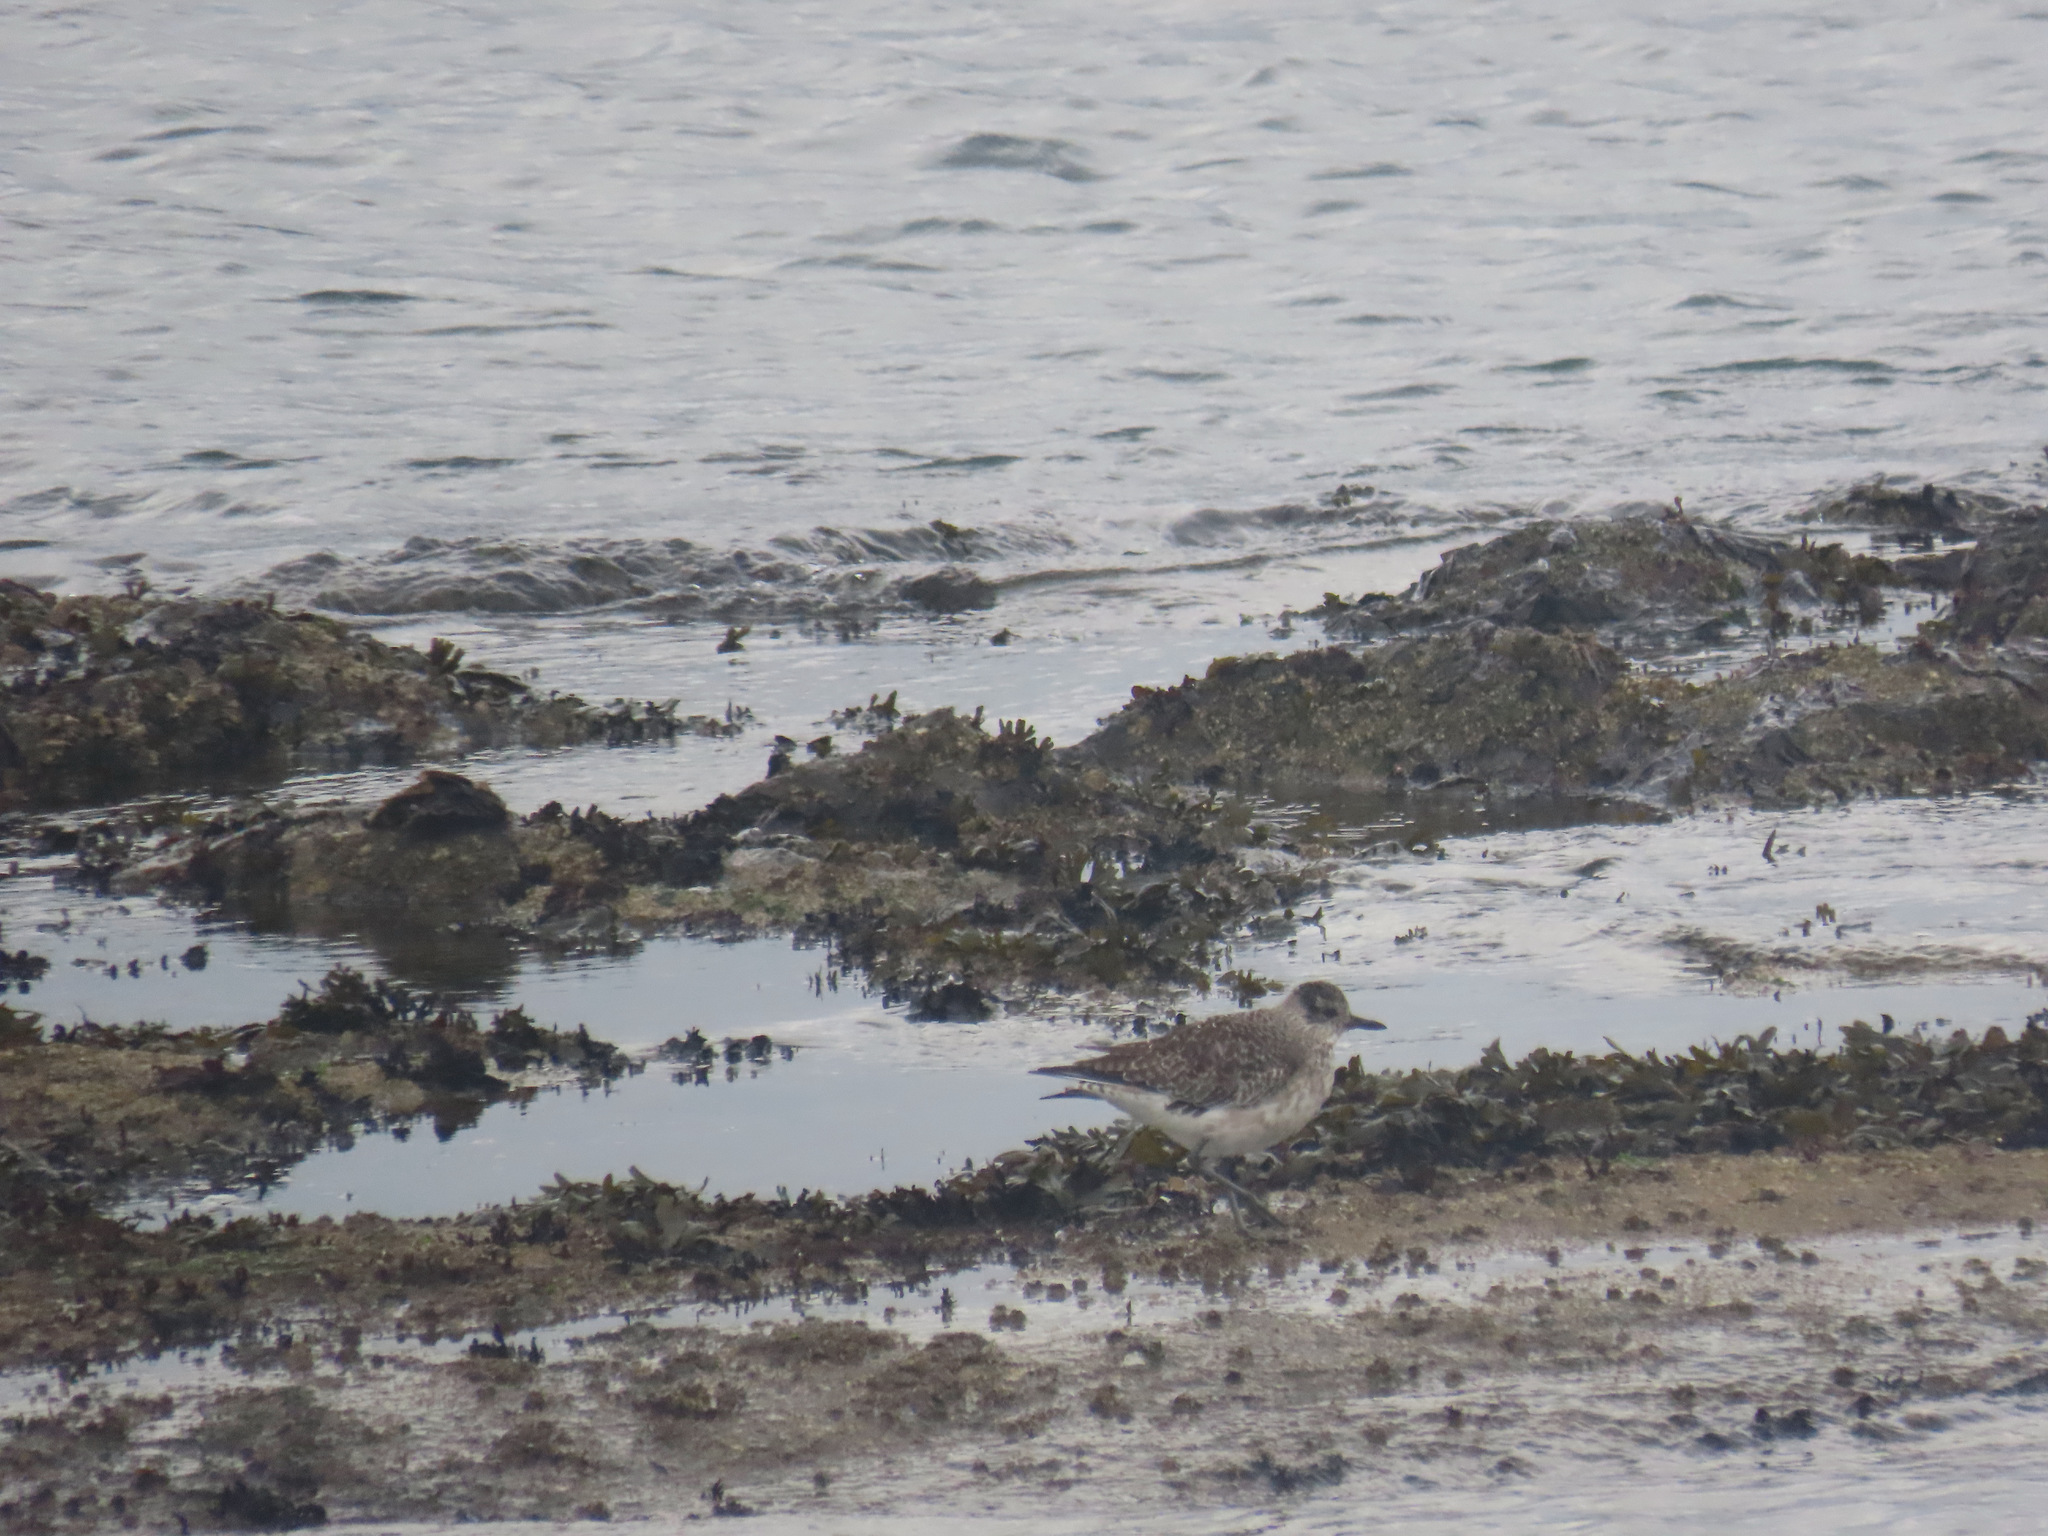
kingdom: Animalia
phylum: Chordata
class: Aves
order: Charadriiformes
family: Charadriidae
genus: Pluvialis
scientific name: Pluvialis squatarola
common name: Grey plover
